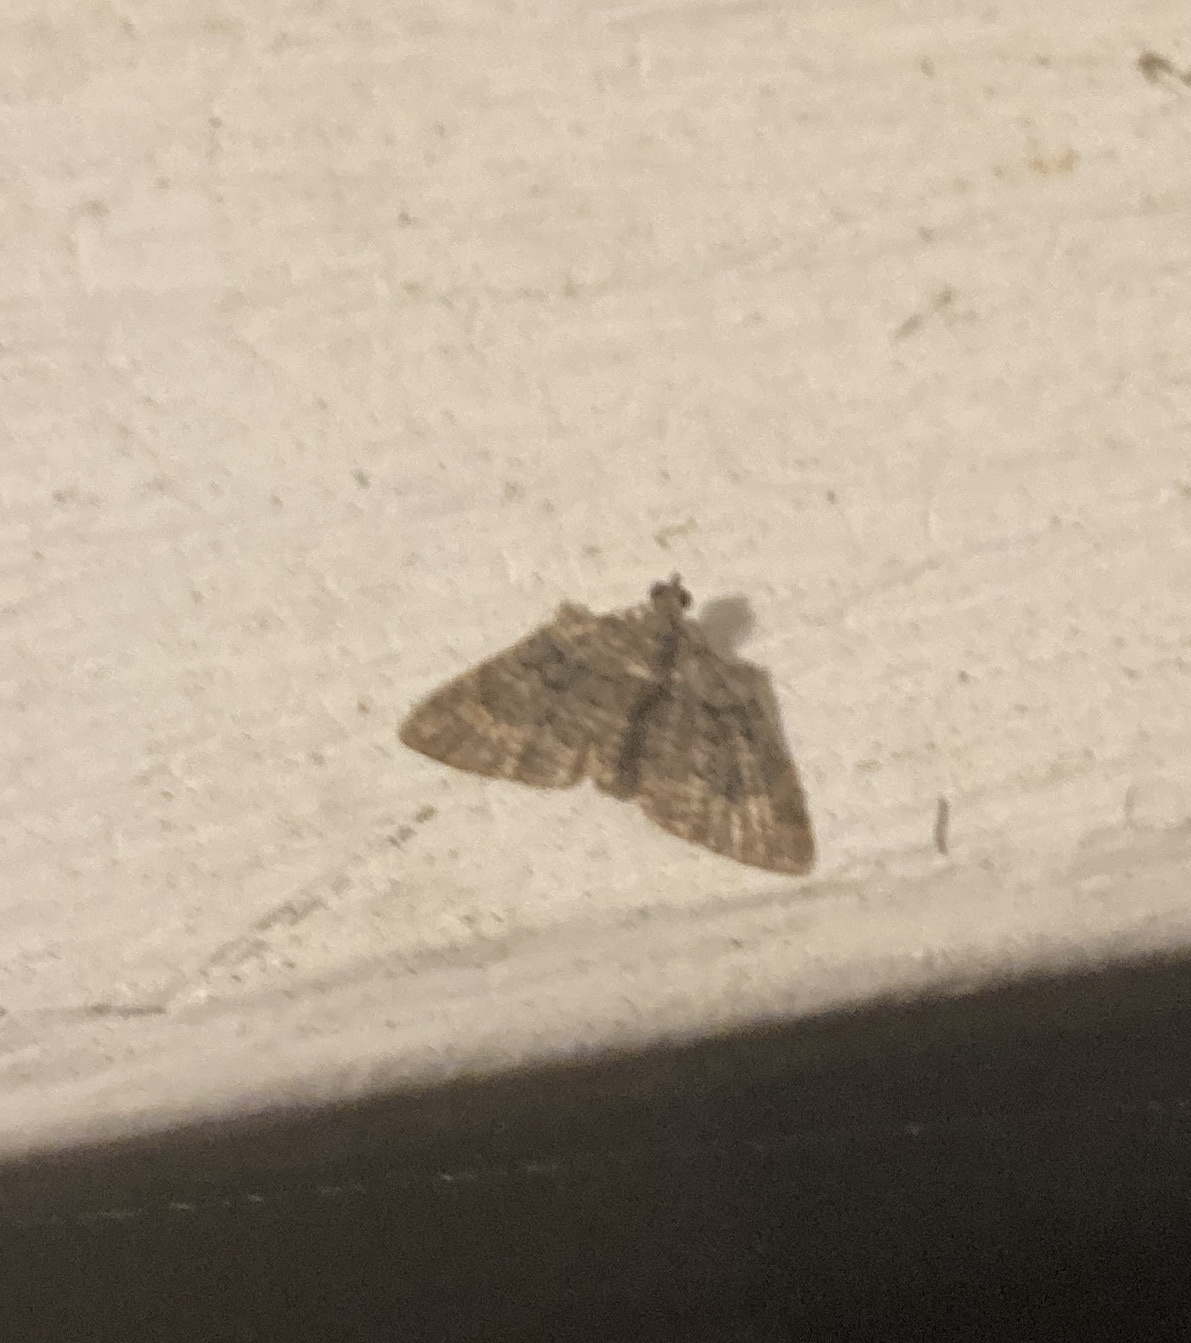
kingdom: Animalia
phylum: Arthropoda
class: Insecta
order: Lepidoptera
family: Geometridae
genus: Phrissogonus
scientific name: Phrissogonus laticostata
